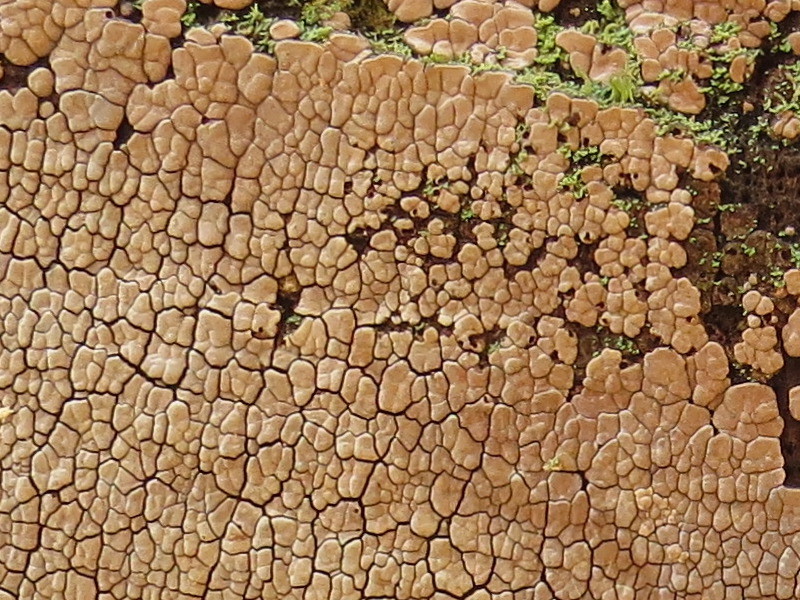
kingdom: Fungi
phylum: Basidiomycota
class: Agaricomycetes
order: Russulales
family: Stereaceae
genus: Xylobolus
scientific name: Xylobolus frustulatus
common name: Ceramic parchment
